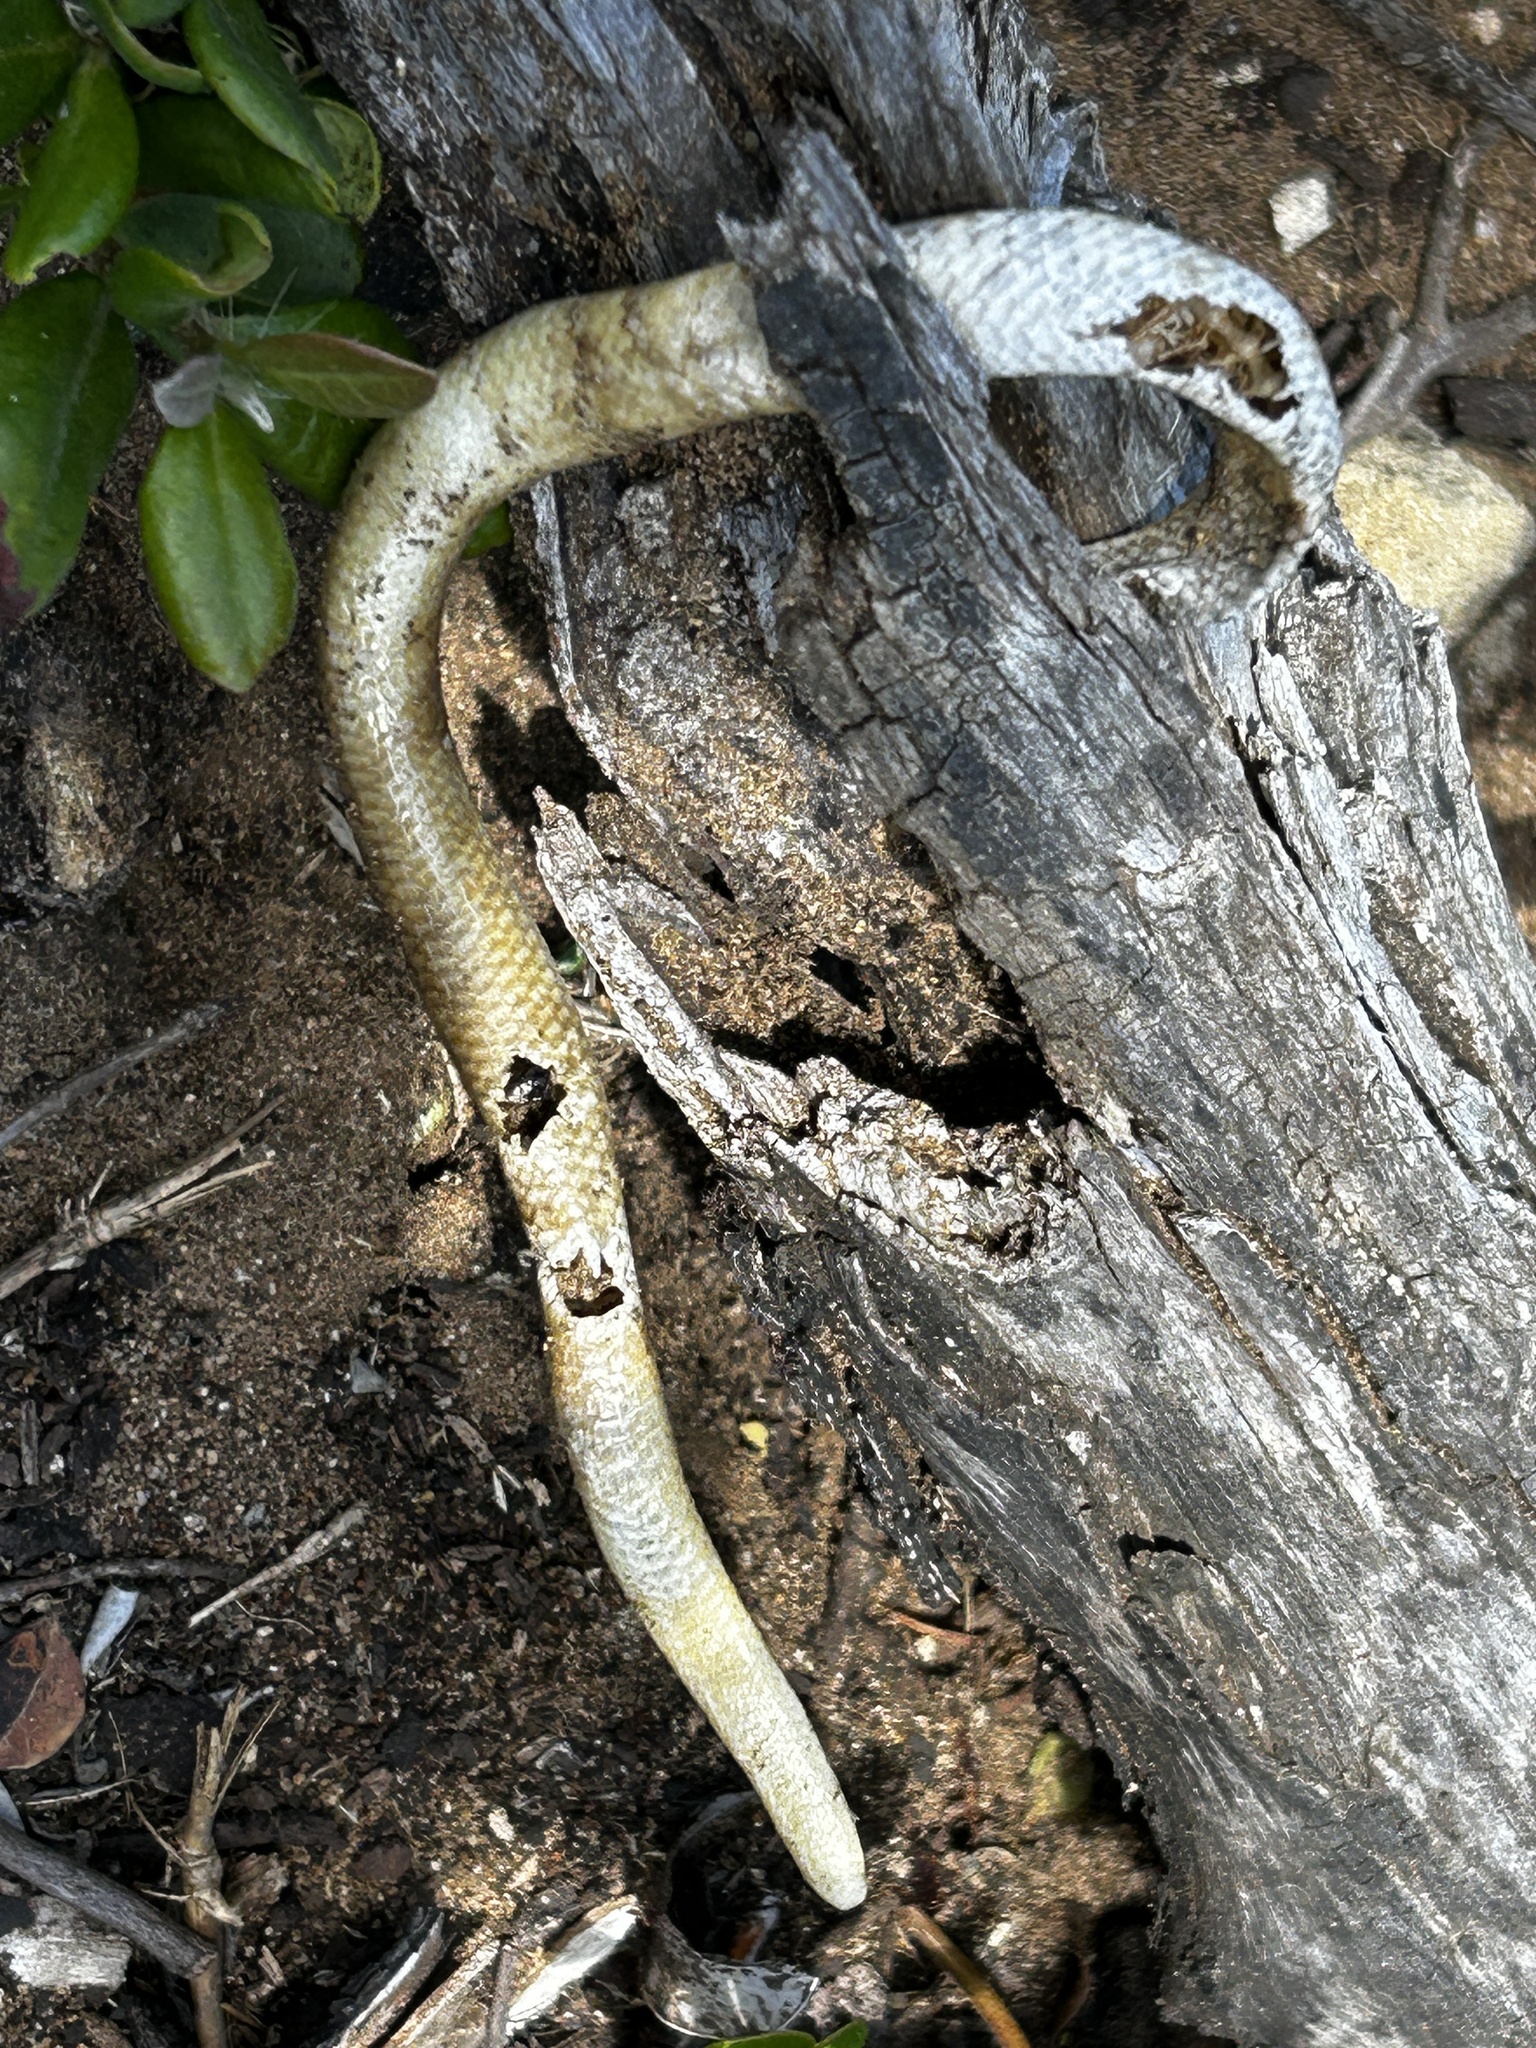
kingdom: Animalia
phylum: Chordata
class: Squamata
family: Scincidae
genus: Acontias
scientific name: Acontias meleagris
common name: Cape legless skink
